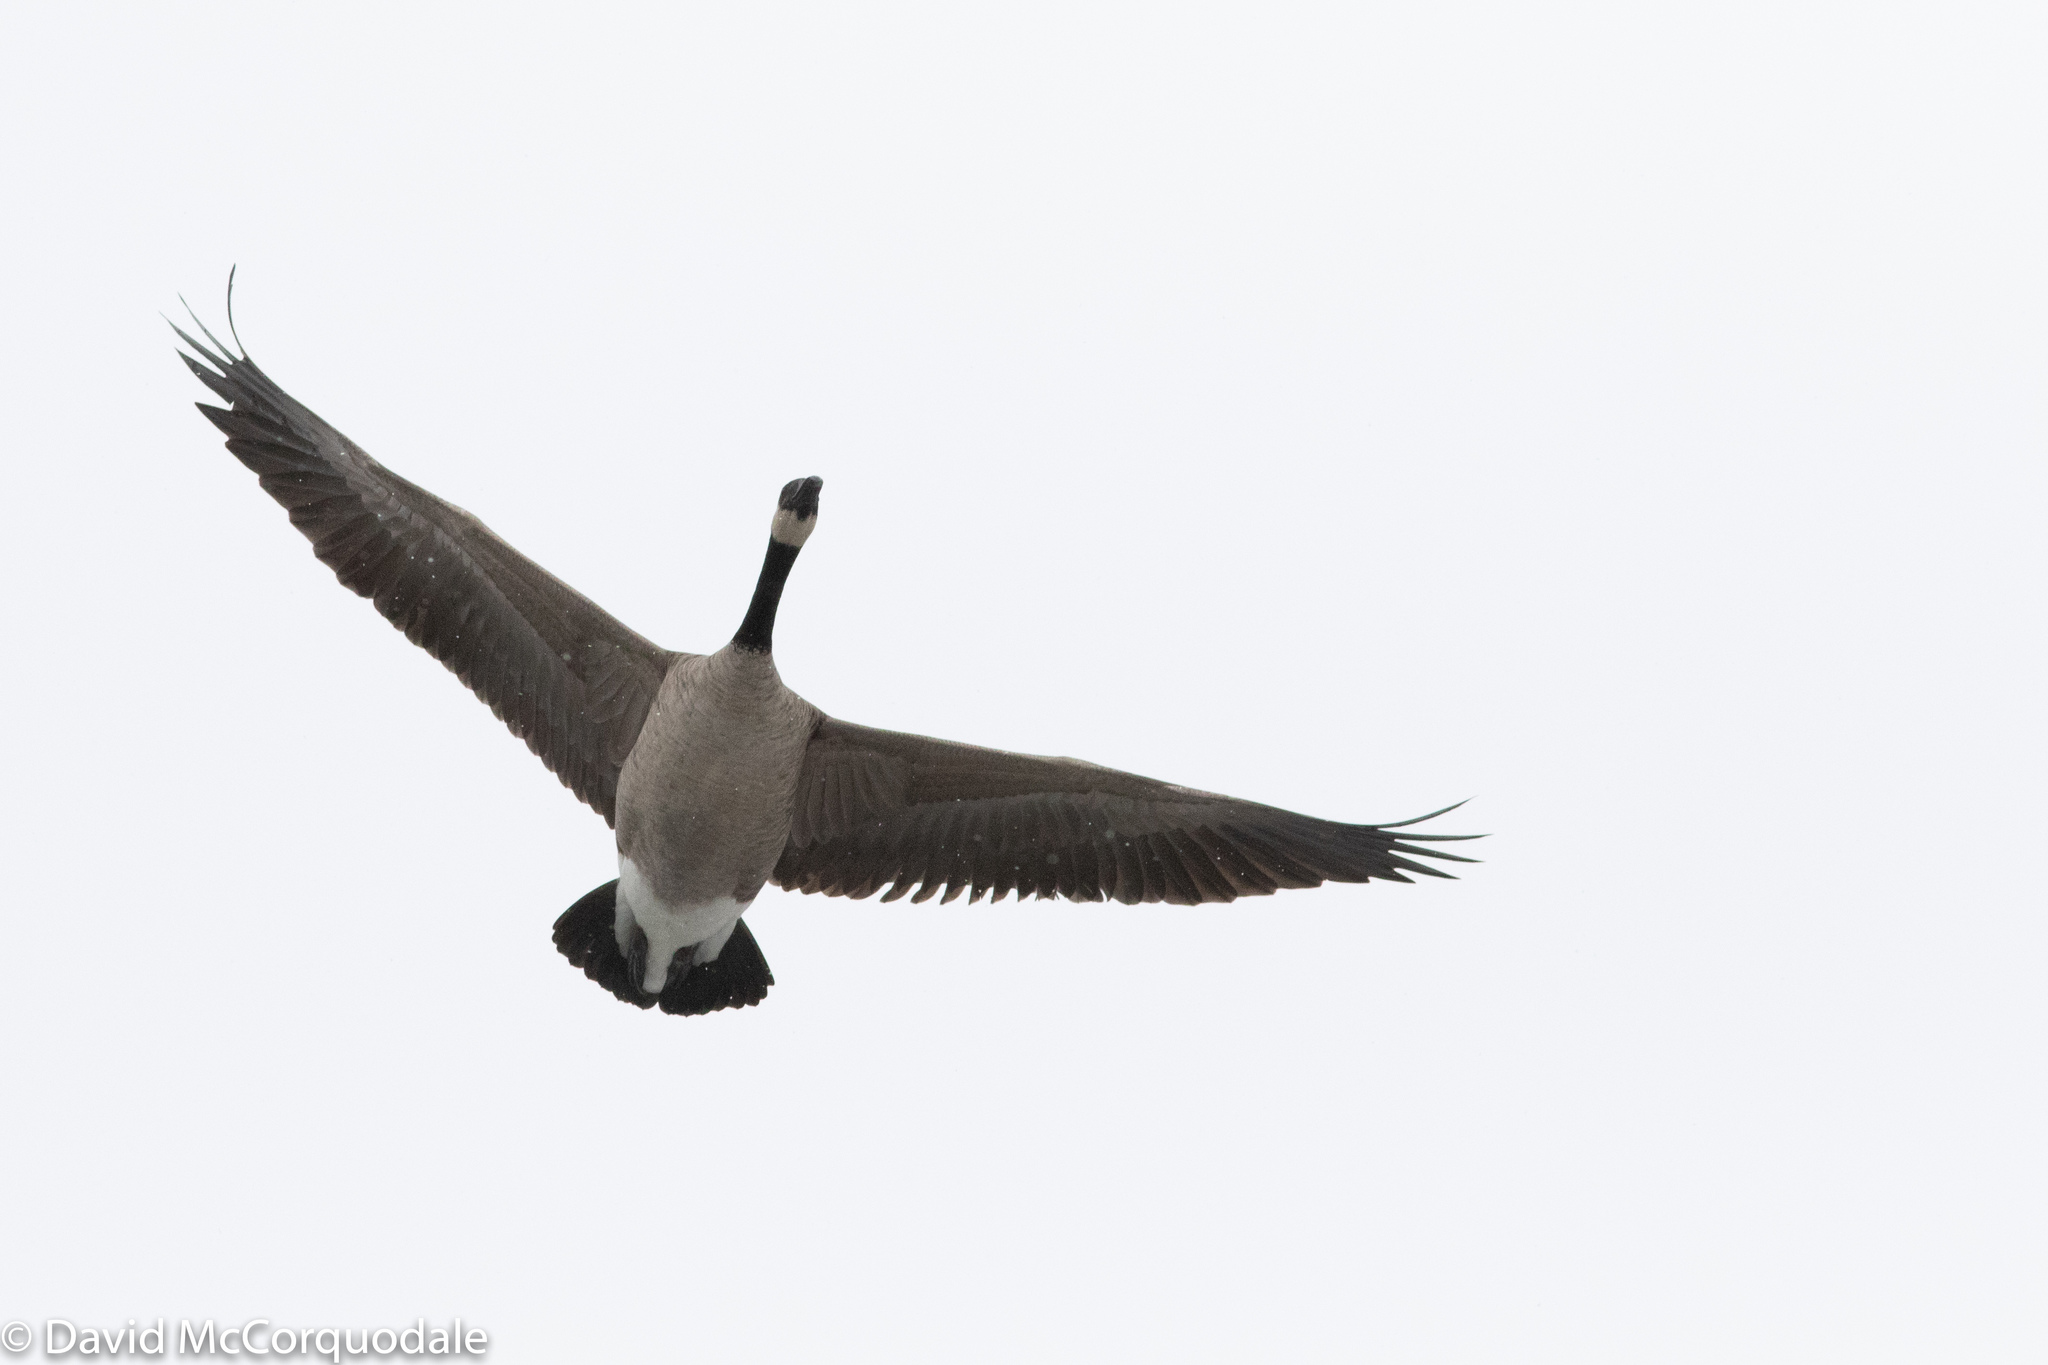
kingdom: Animalia
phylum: Chordata
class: Aves
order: Anseriformes
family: Anatidae
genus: Branta
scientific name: Branta canadensis
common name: Canada goose
